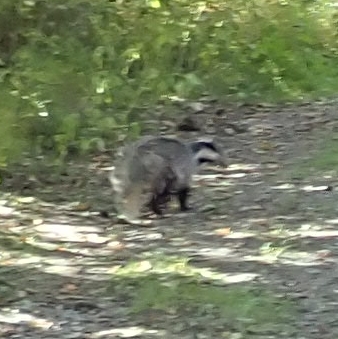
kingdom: Animalia
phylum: Chordata
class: Mammalia
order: Carnivora
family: Mustelidae
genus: Meles
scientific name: Meles meles
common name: Eurasian badger
